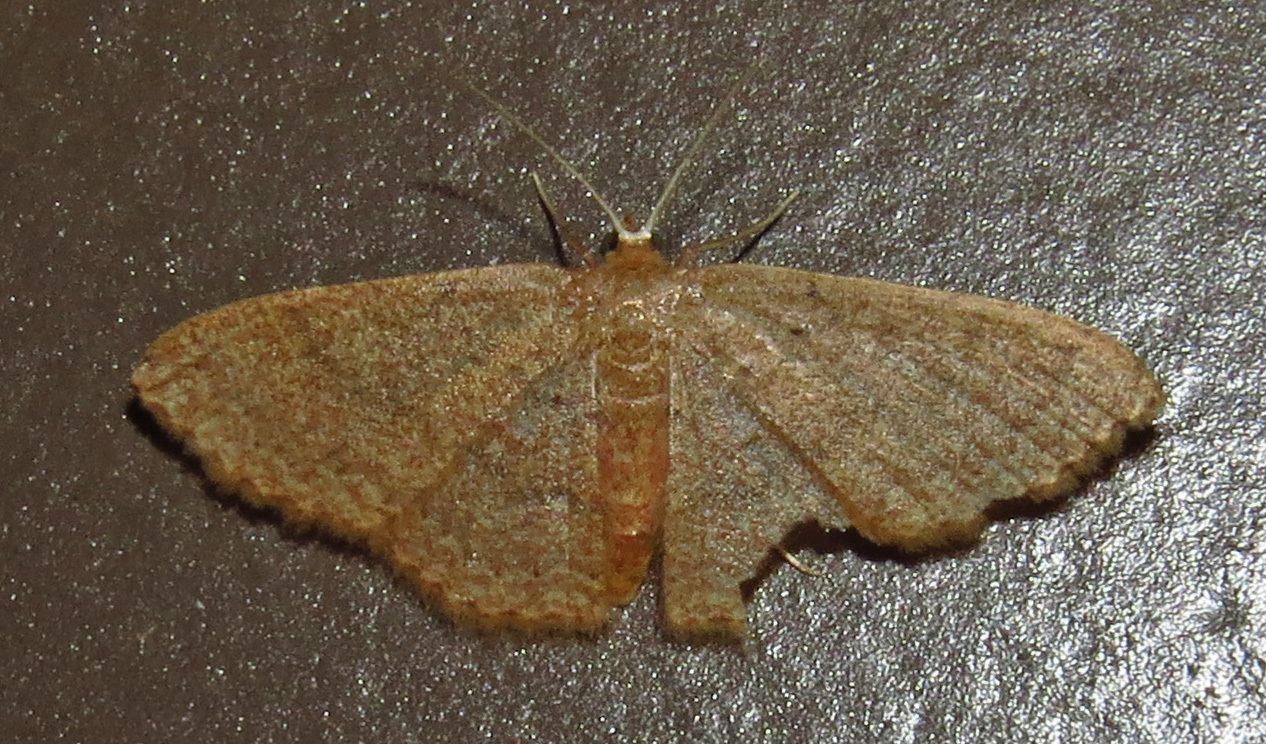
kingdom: Animalia
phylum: Arthropoda
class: Insecta
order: Lepidoptera
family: Geometridae
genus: Pleuroprucha
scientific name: Pleuroprucha insulsaria
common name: Common tan wave
